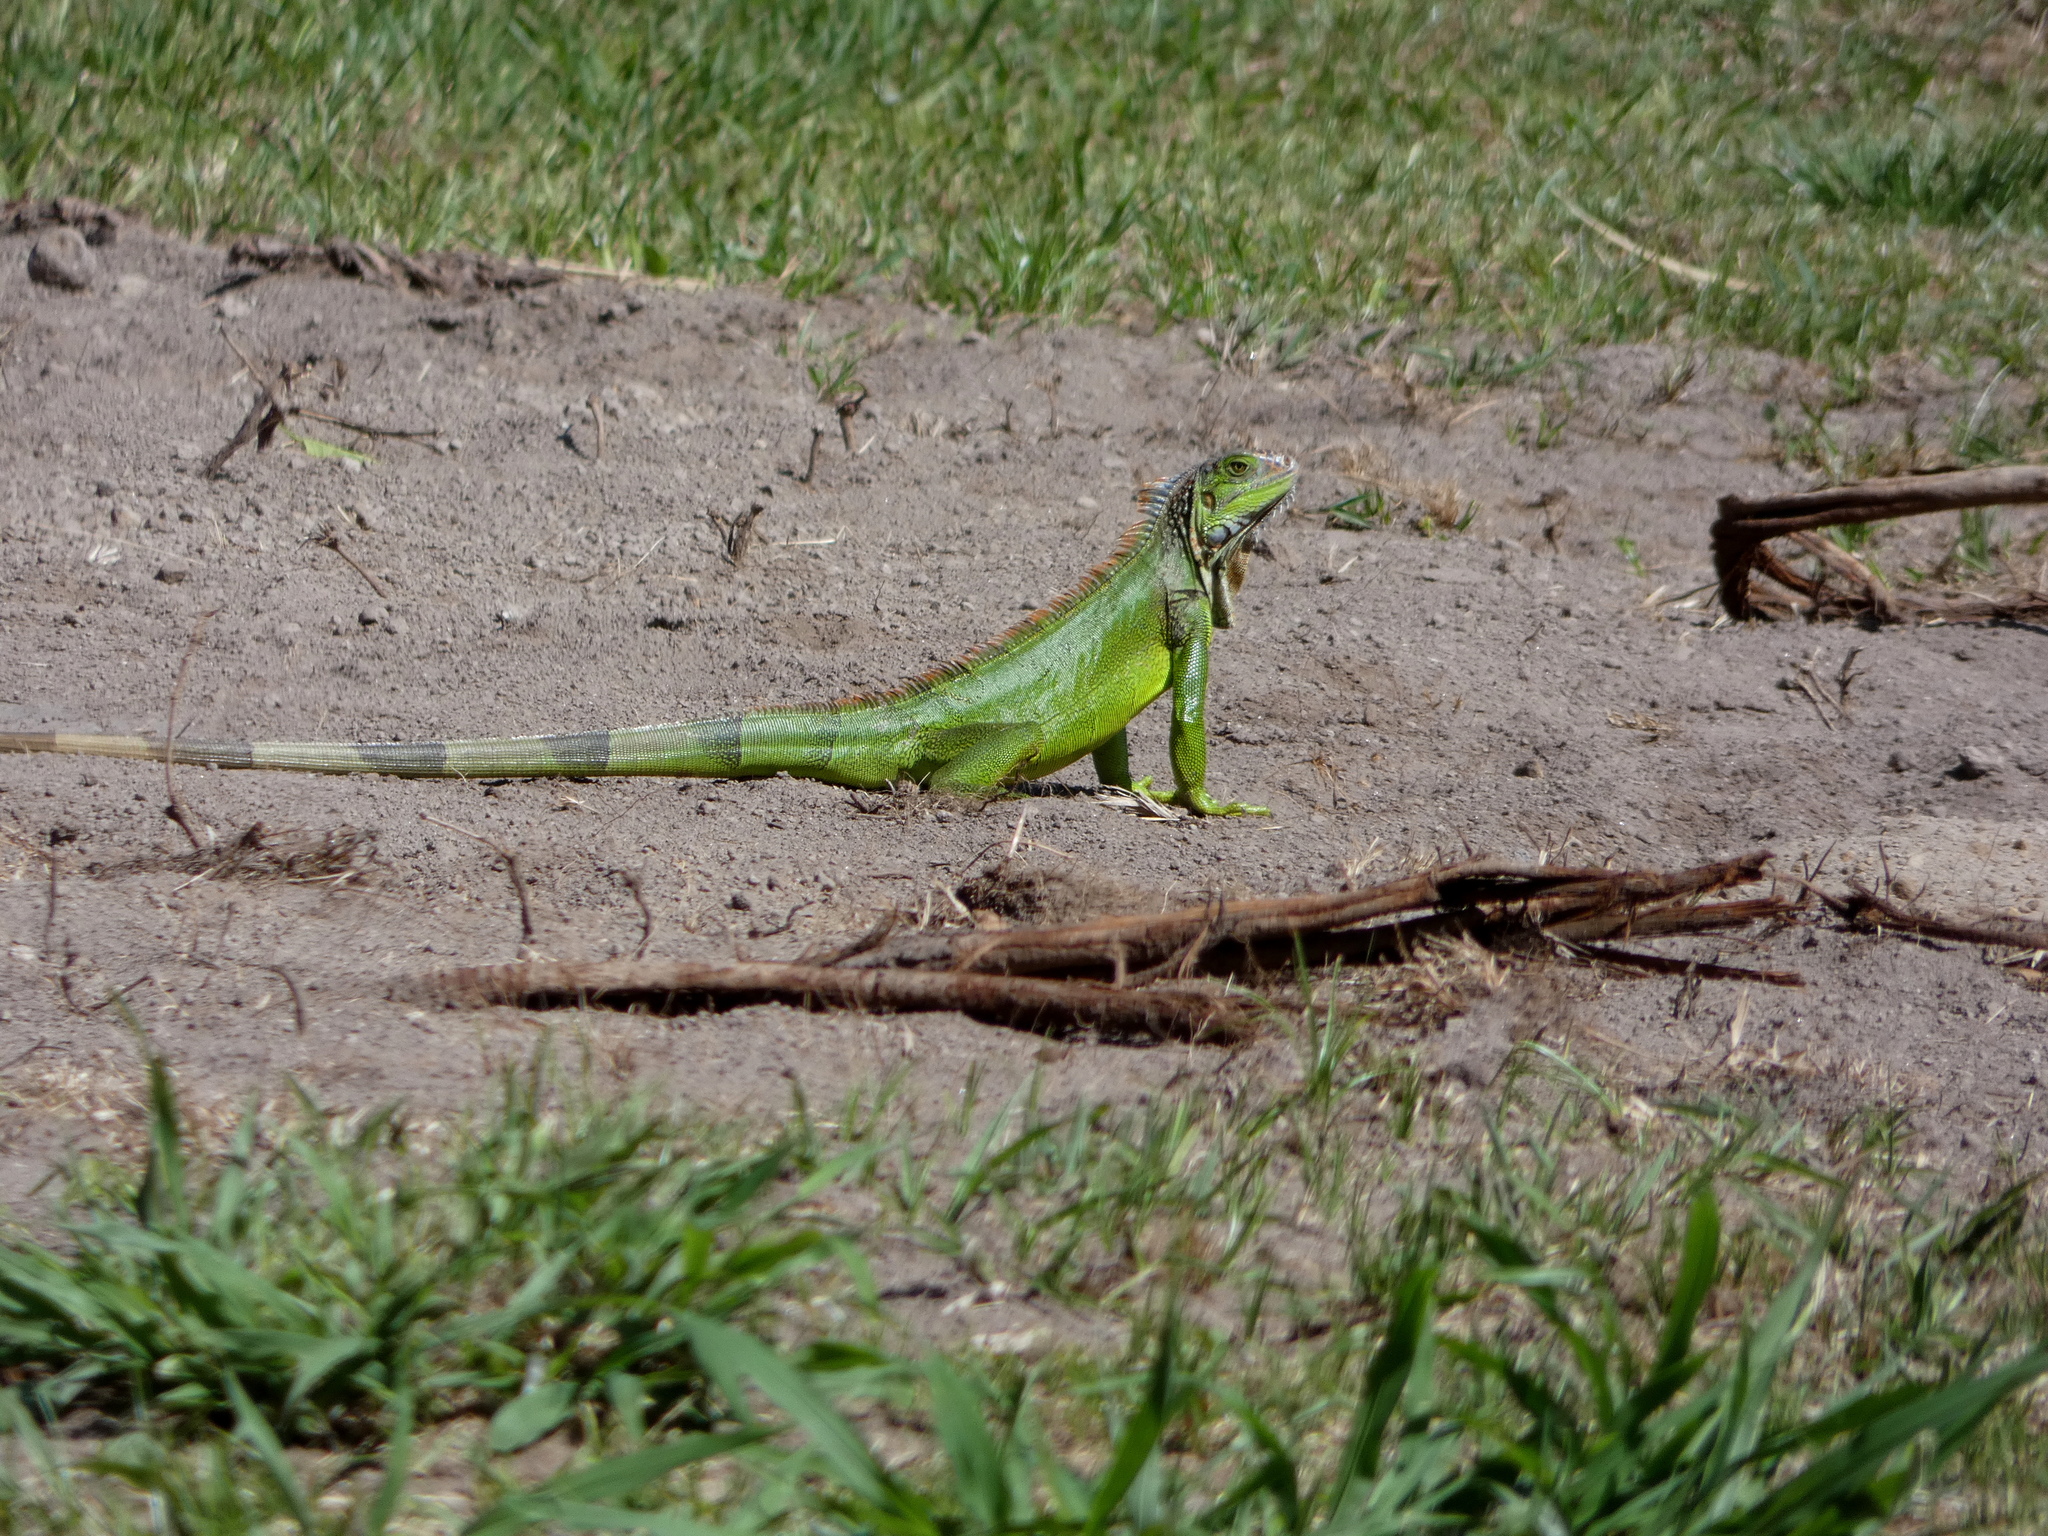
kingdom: Animalia
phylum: Chordata
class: Squamata
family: Iguanidae
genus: Iguana
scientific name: Iguana iguana
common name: Green iguana
